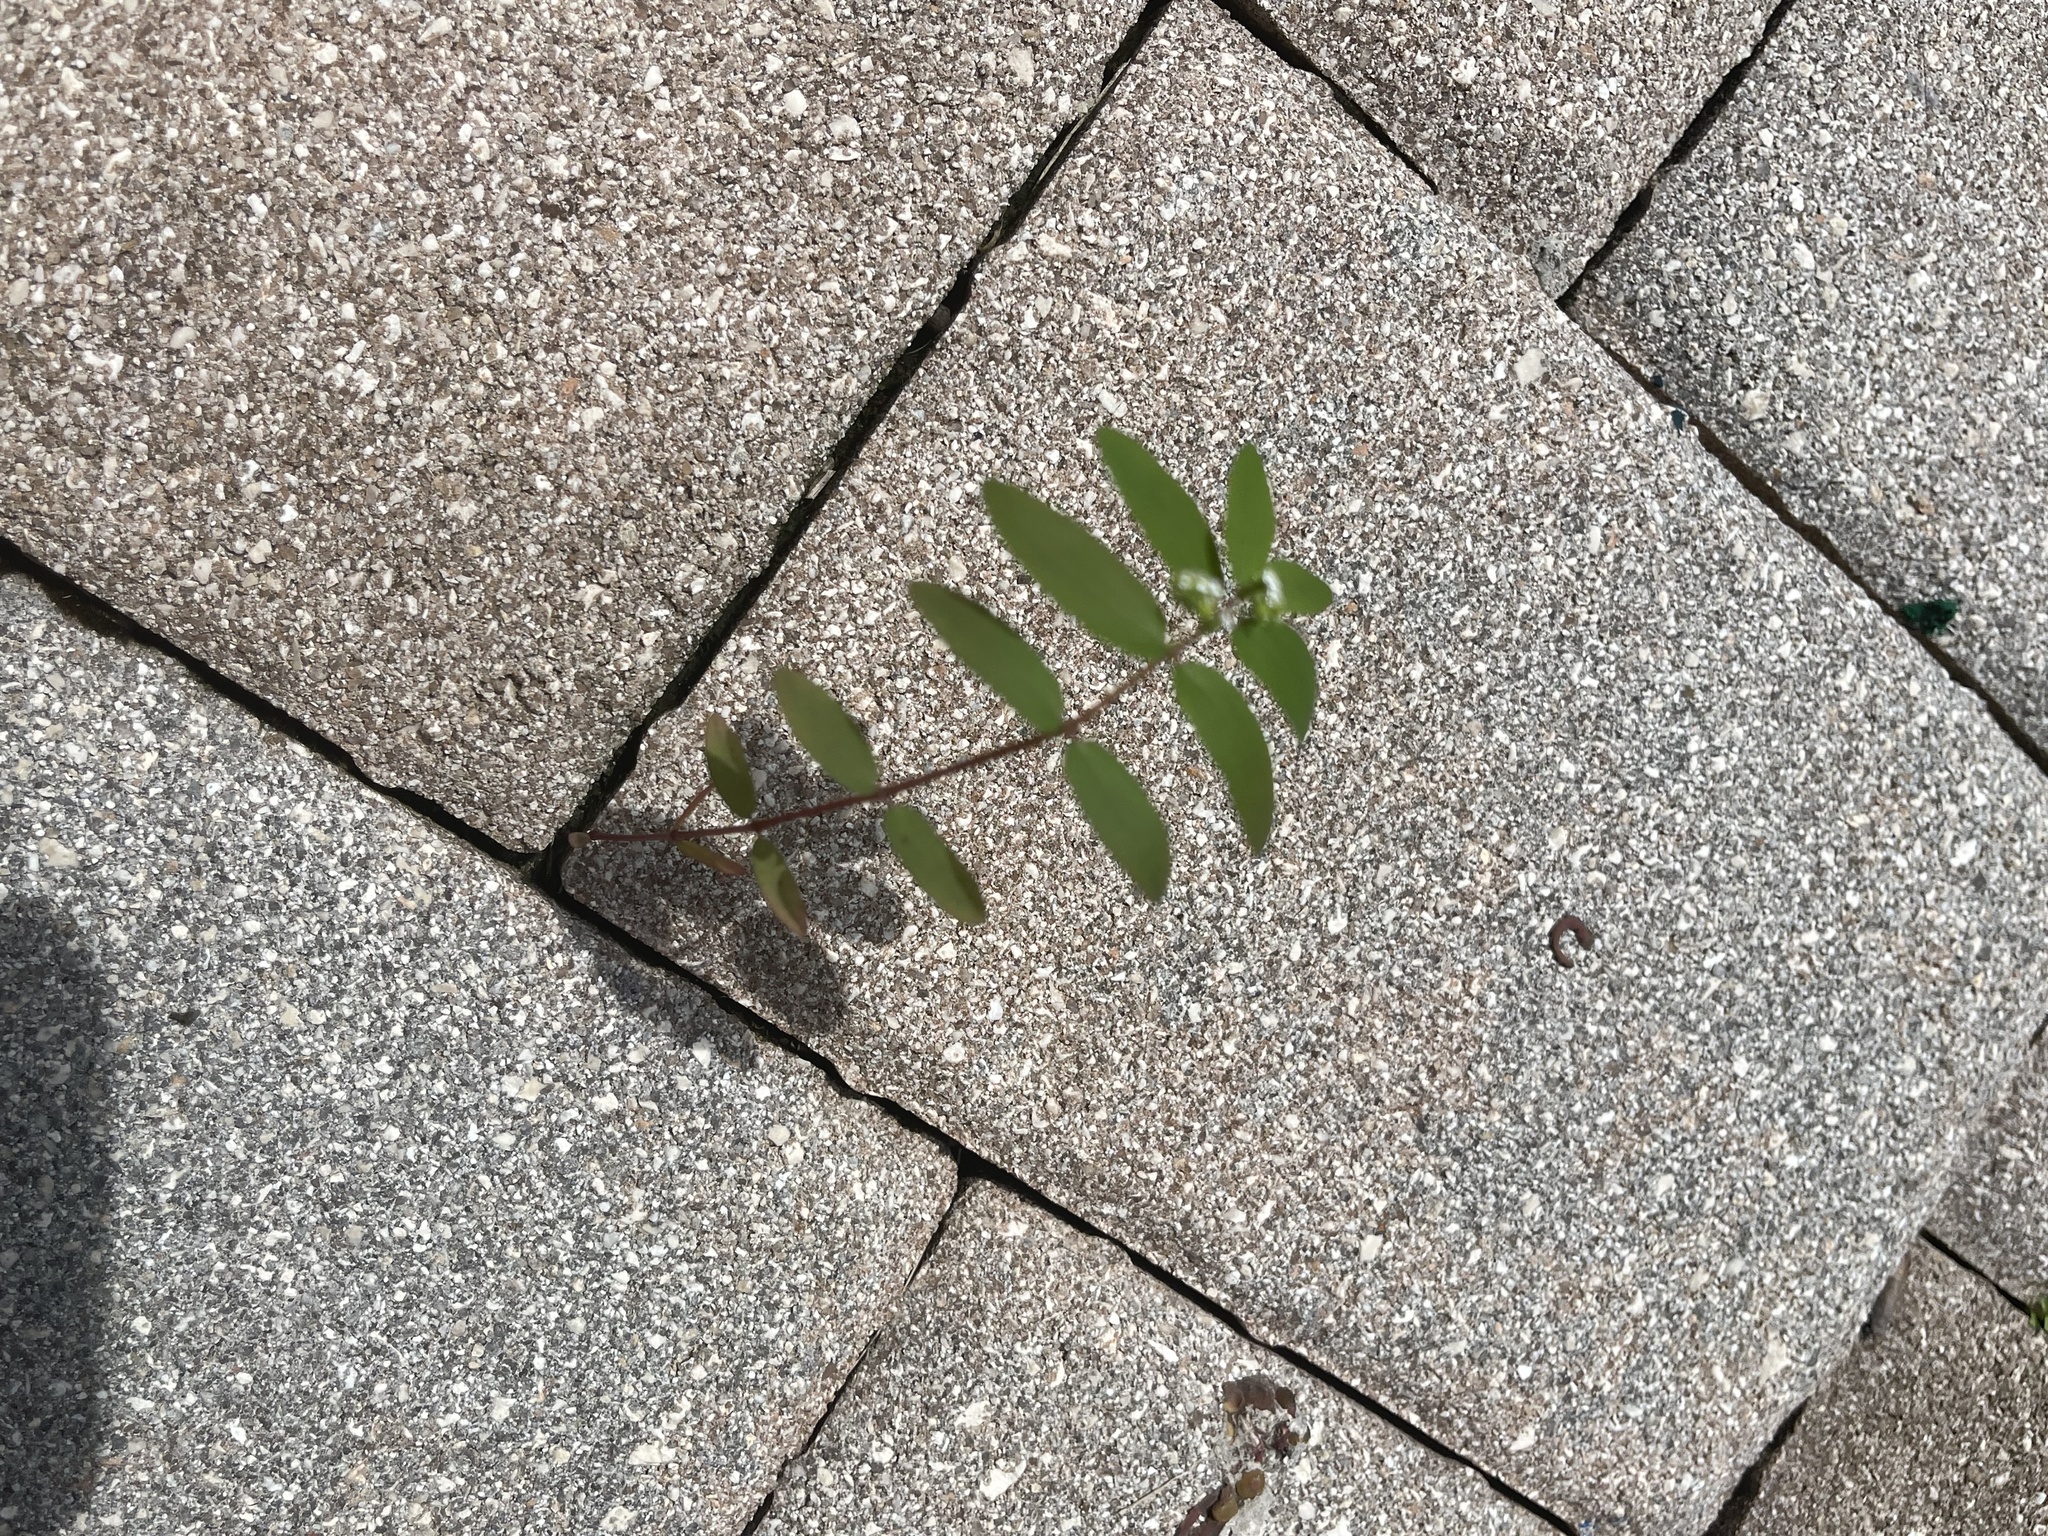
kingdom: Plantae
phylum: Tracheophyta
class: Magnoliopsida
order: Malpighiales
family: Euphorbiaceae
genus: Euphorbia
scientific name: Euphorbia hypericifolia
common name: Graceful sandmat
